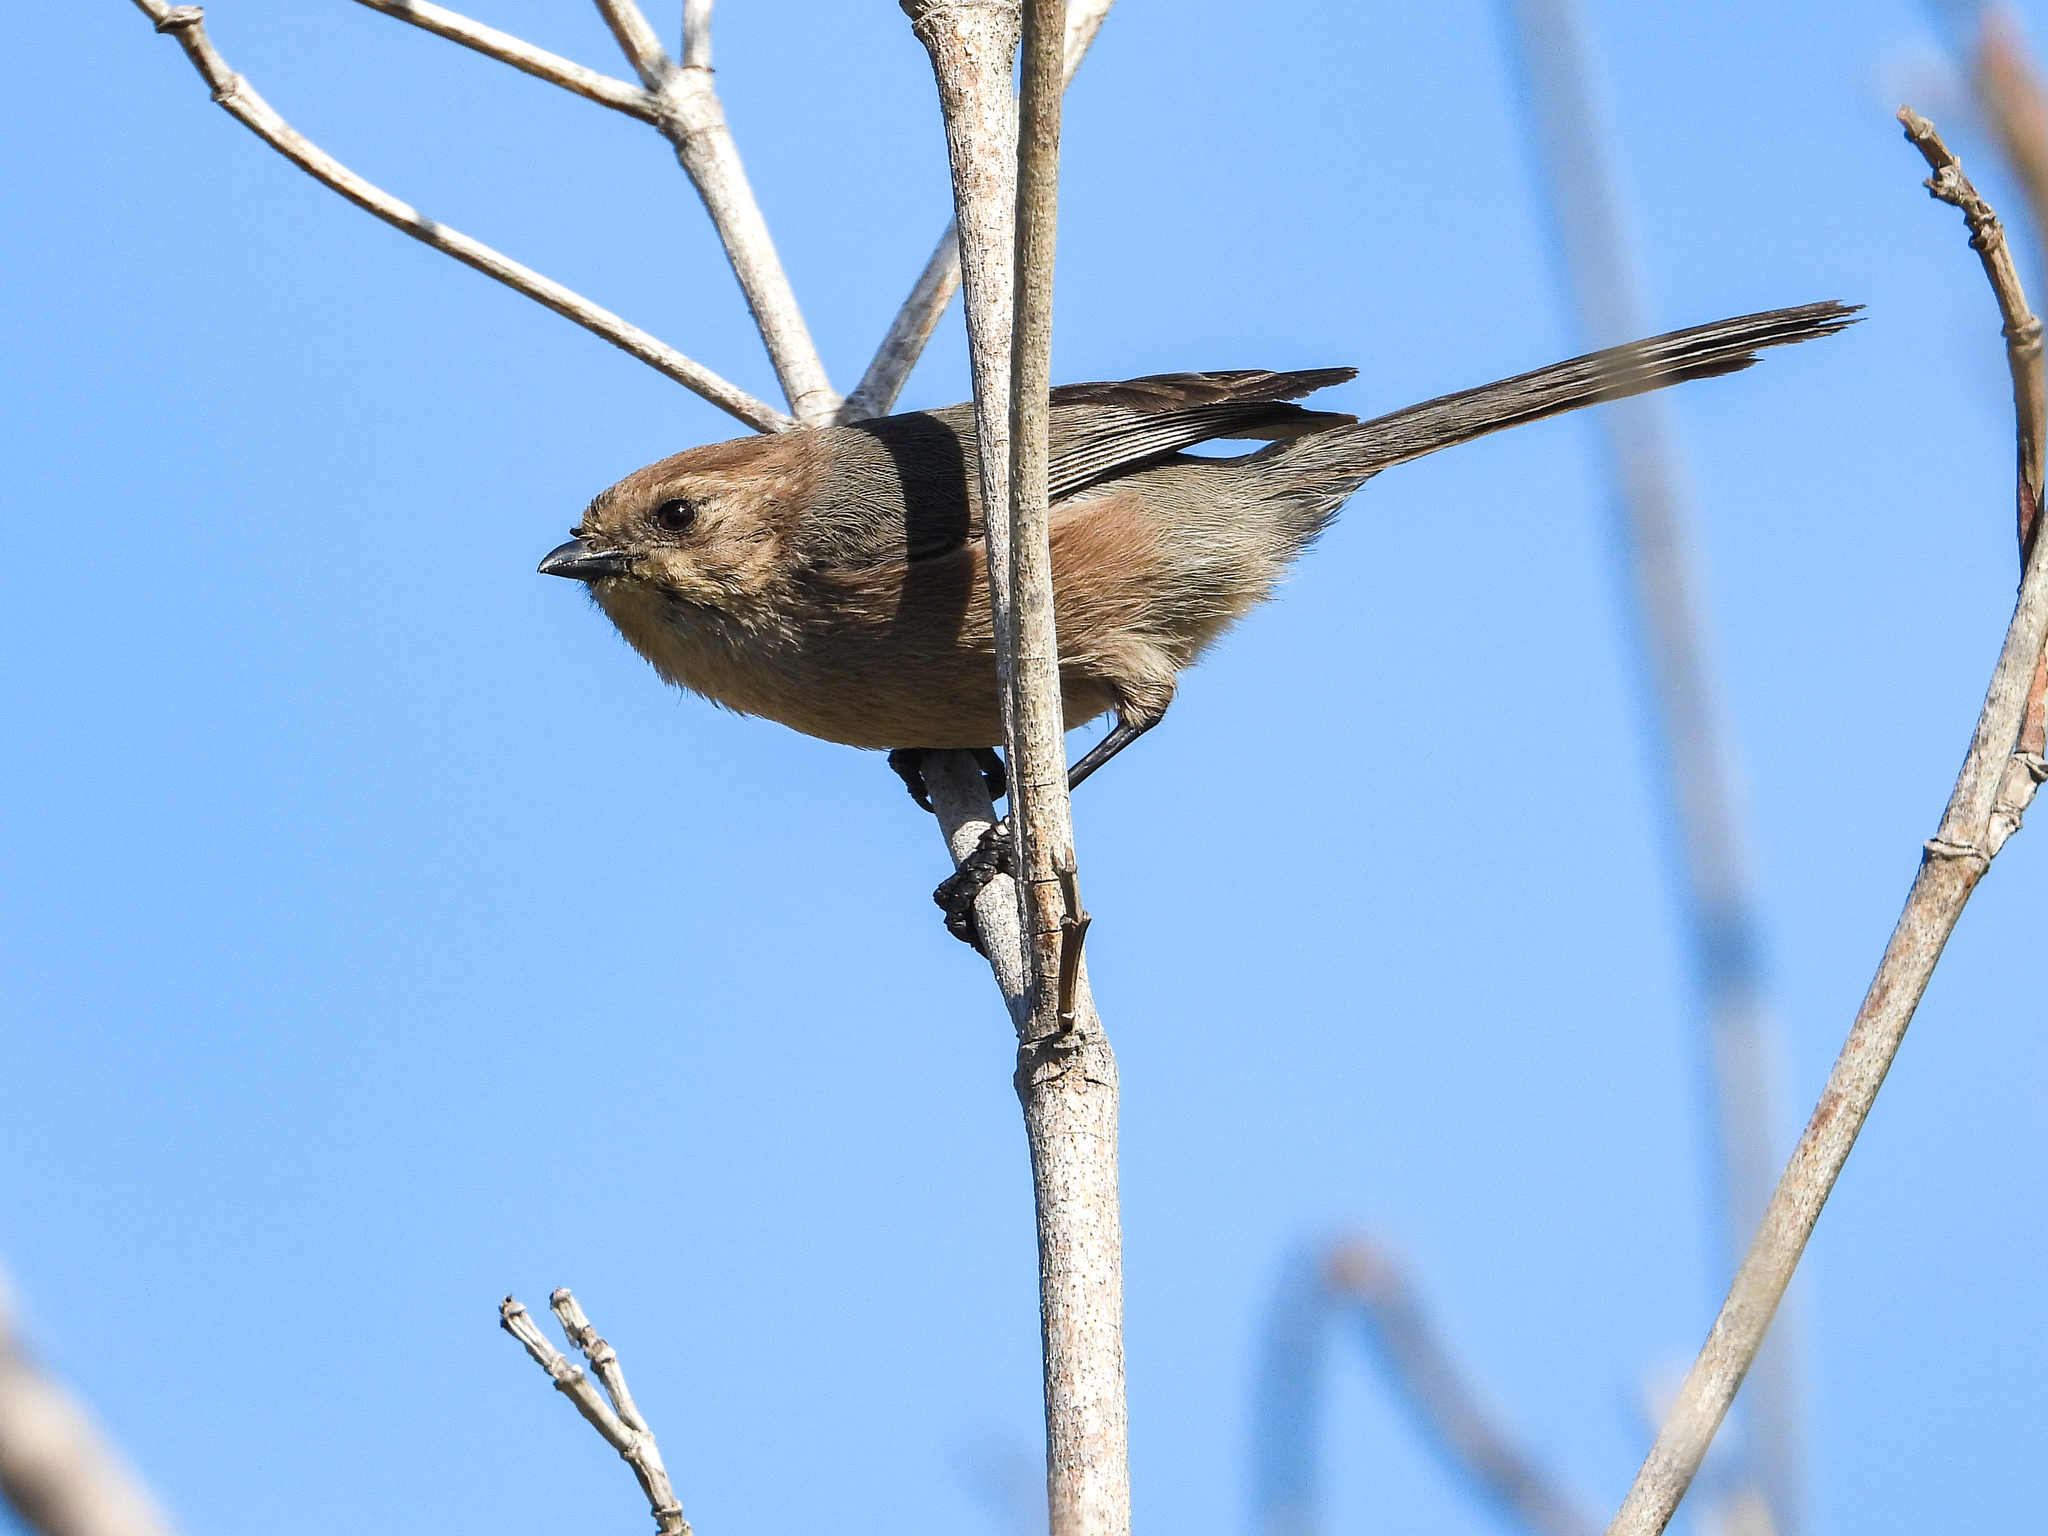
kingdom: Animalia
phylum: Chordata
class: Aves
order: Passeriformes
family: Aegithalidae
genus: Psaltriparus
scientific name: Psaltriparus minimus
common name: American bushtit
